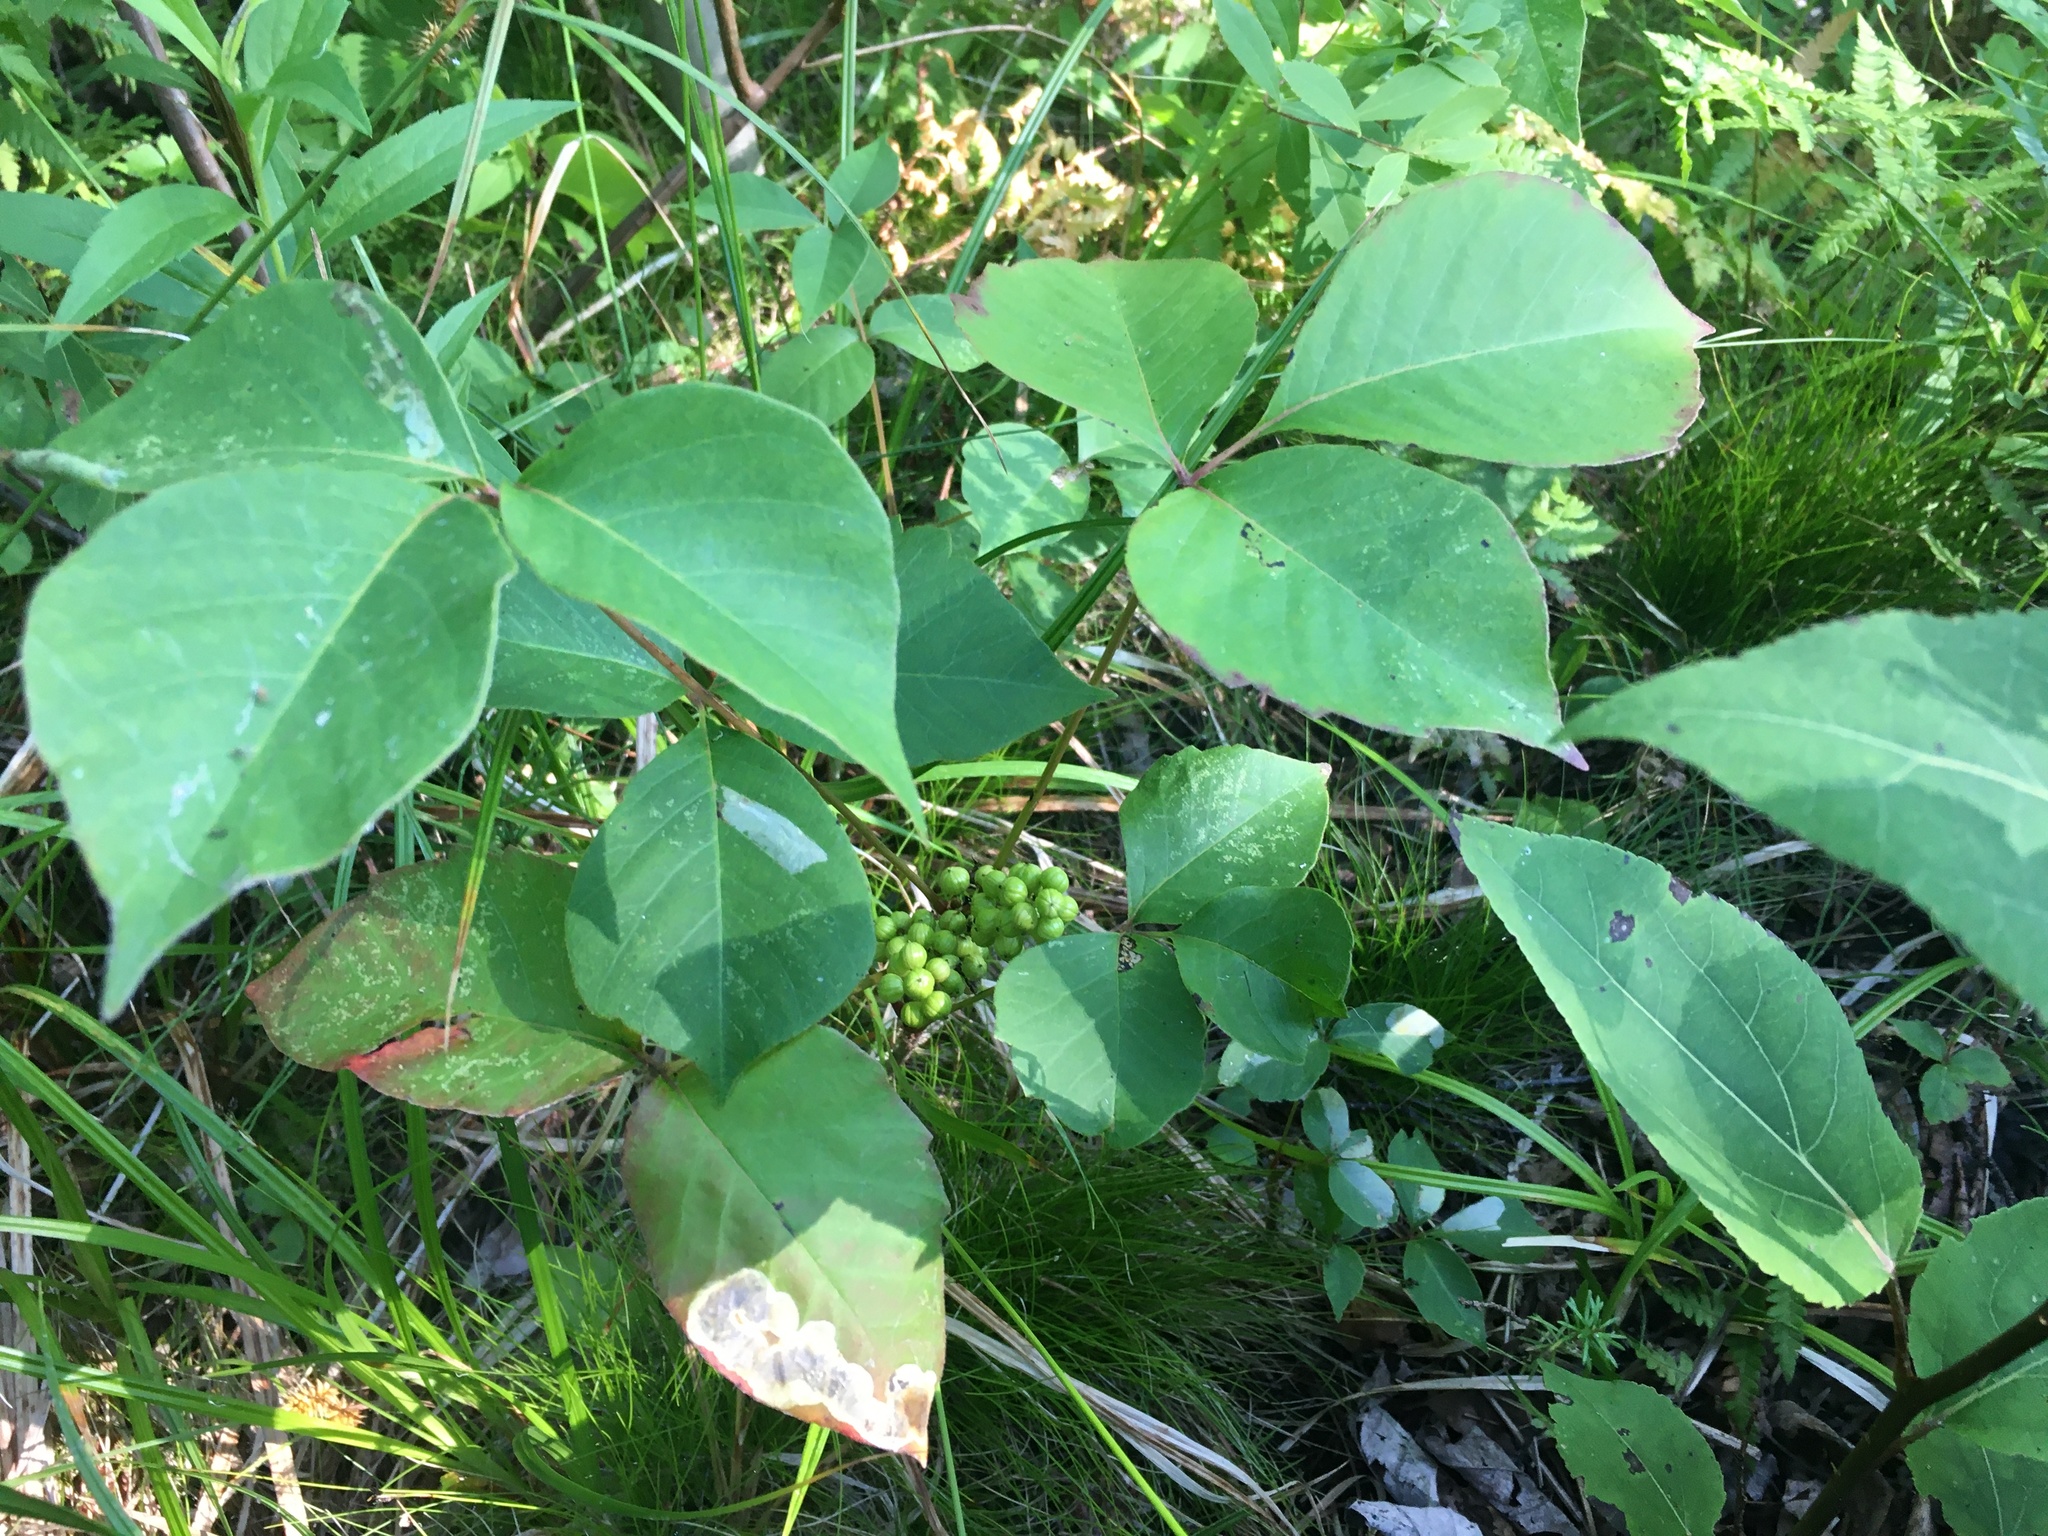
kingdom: Plantae
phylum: Tracheophyta
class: Magnoliopsida
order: Sapindales
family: Anacardiaceae
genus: Toxicodendron
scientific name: Toxicodendron radicans
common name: Poison ivy
